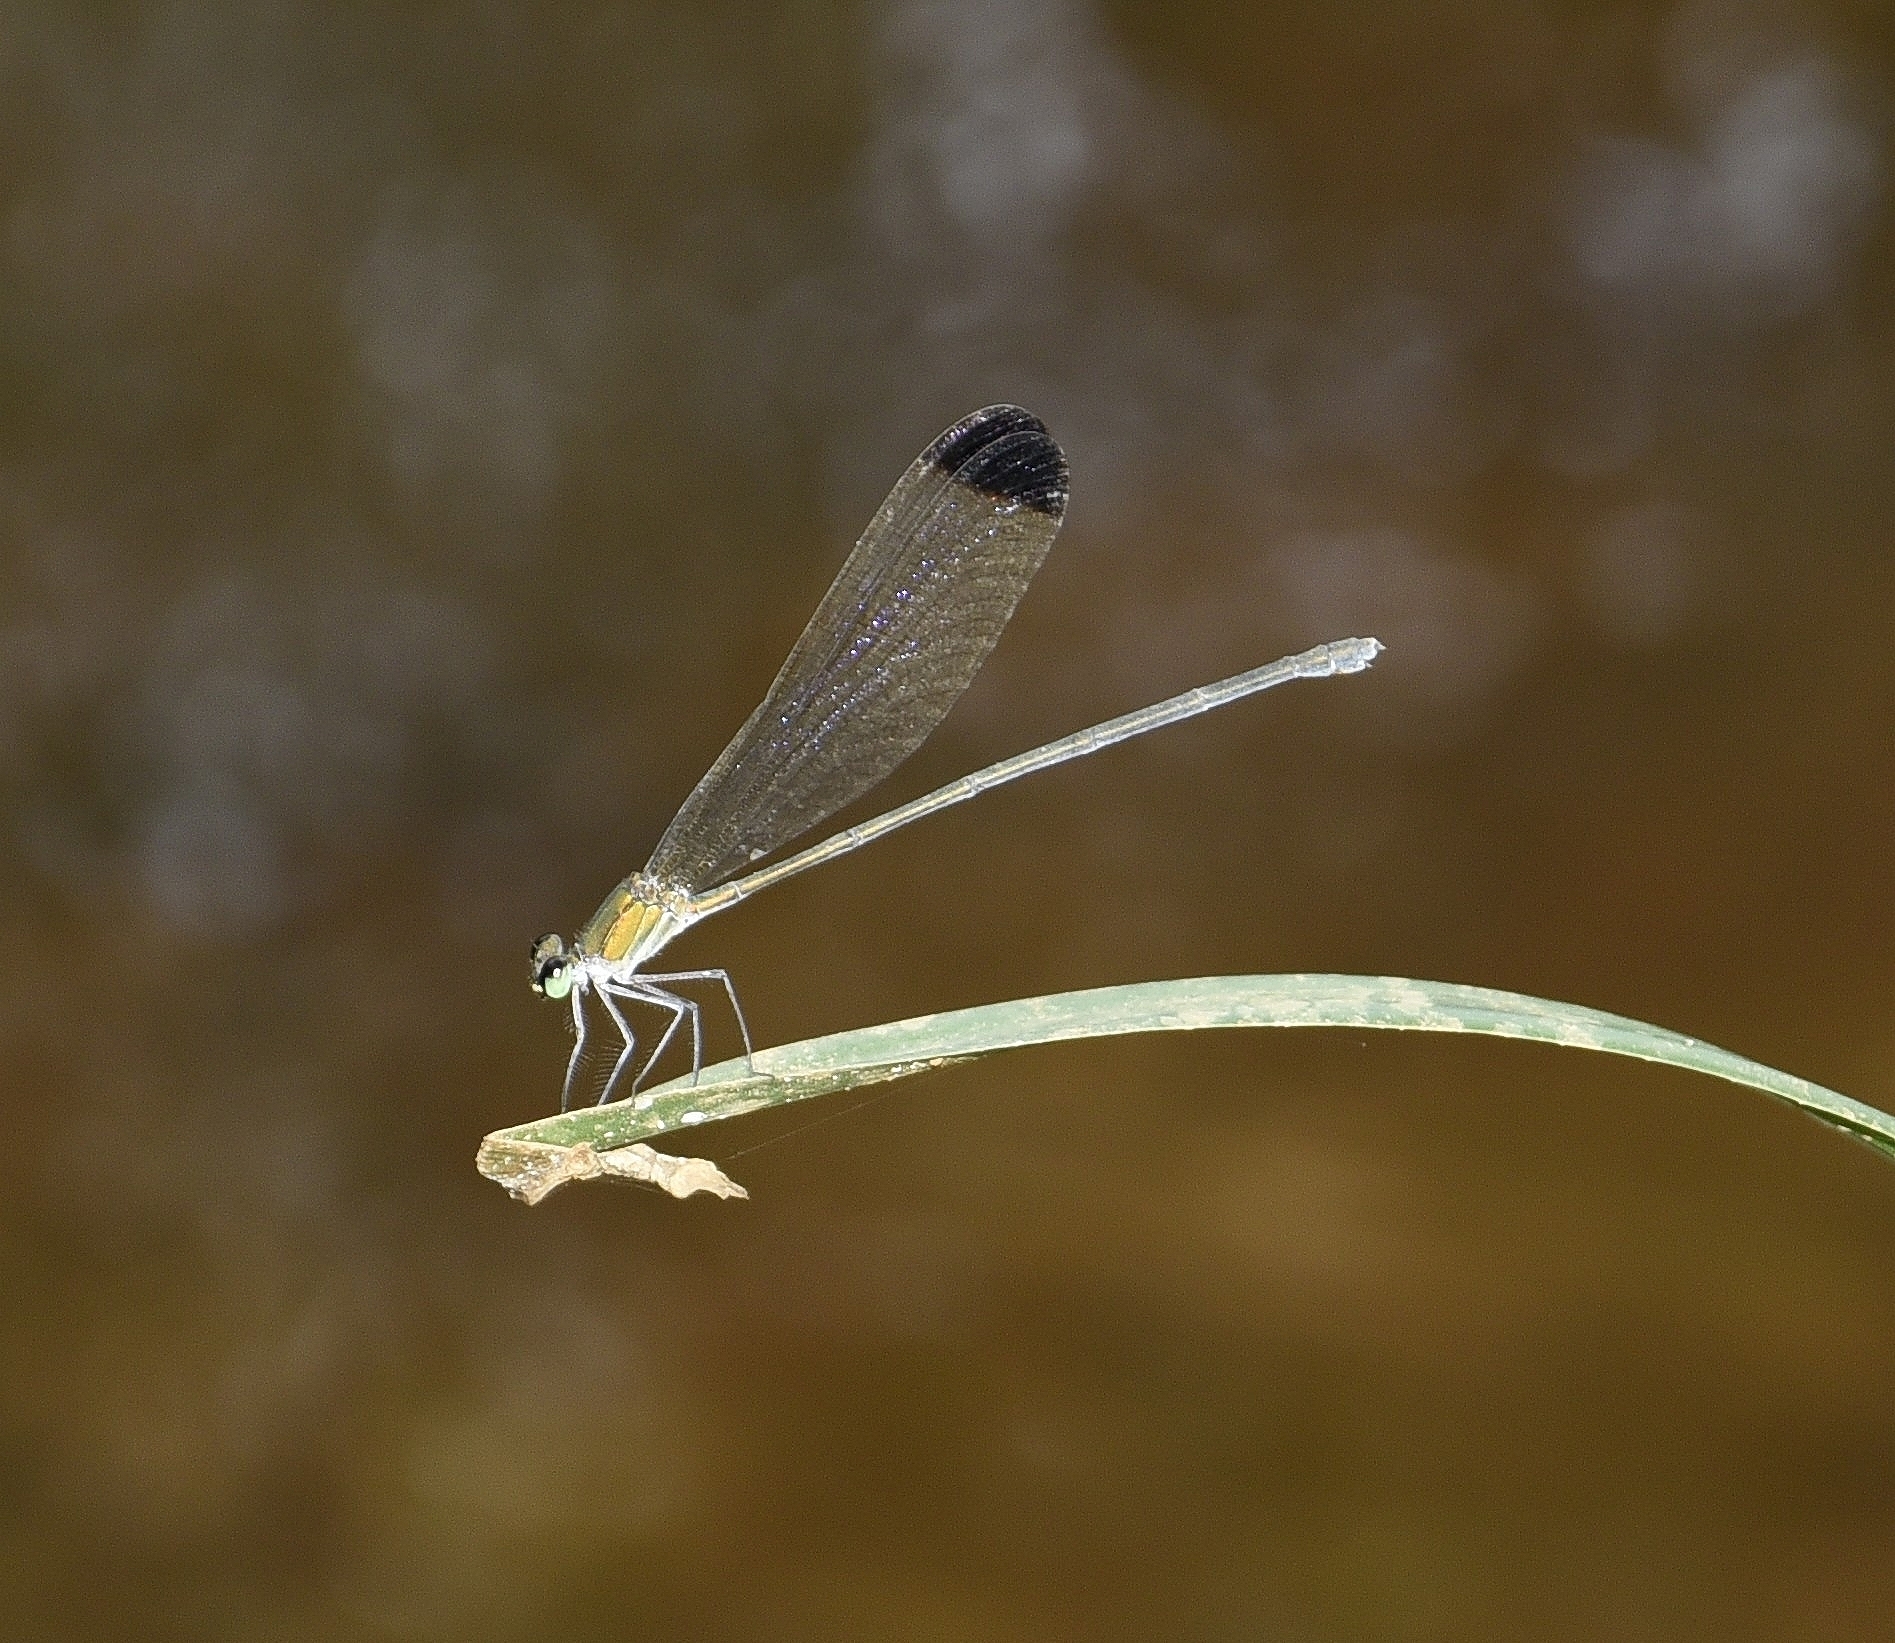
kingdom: Animalia
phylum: Arthropoda
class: Insecta
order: Odonata
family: Calopterygidae
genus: Vestalis
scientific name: Vestalis apicalis
